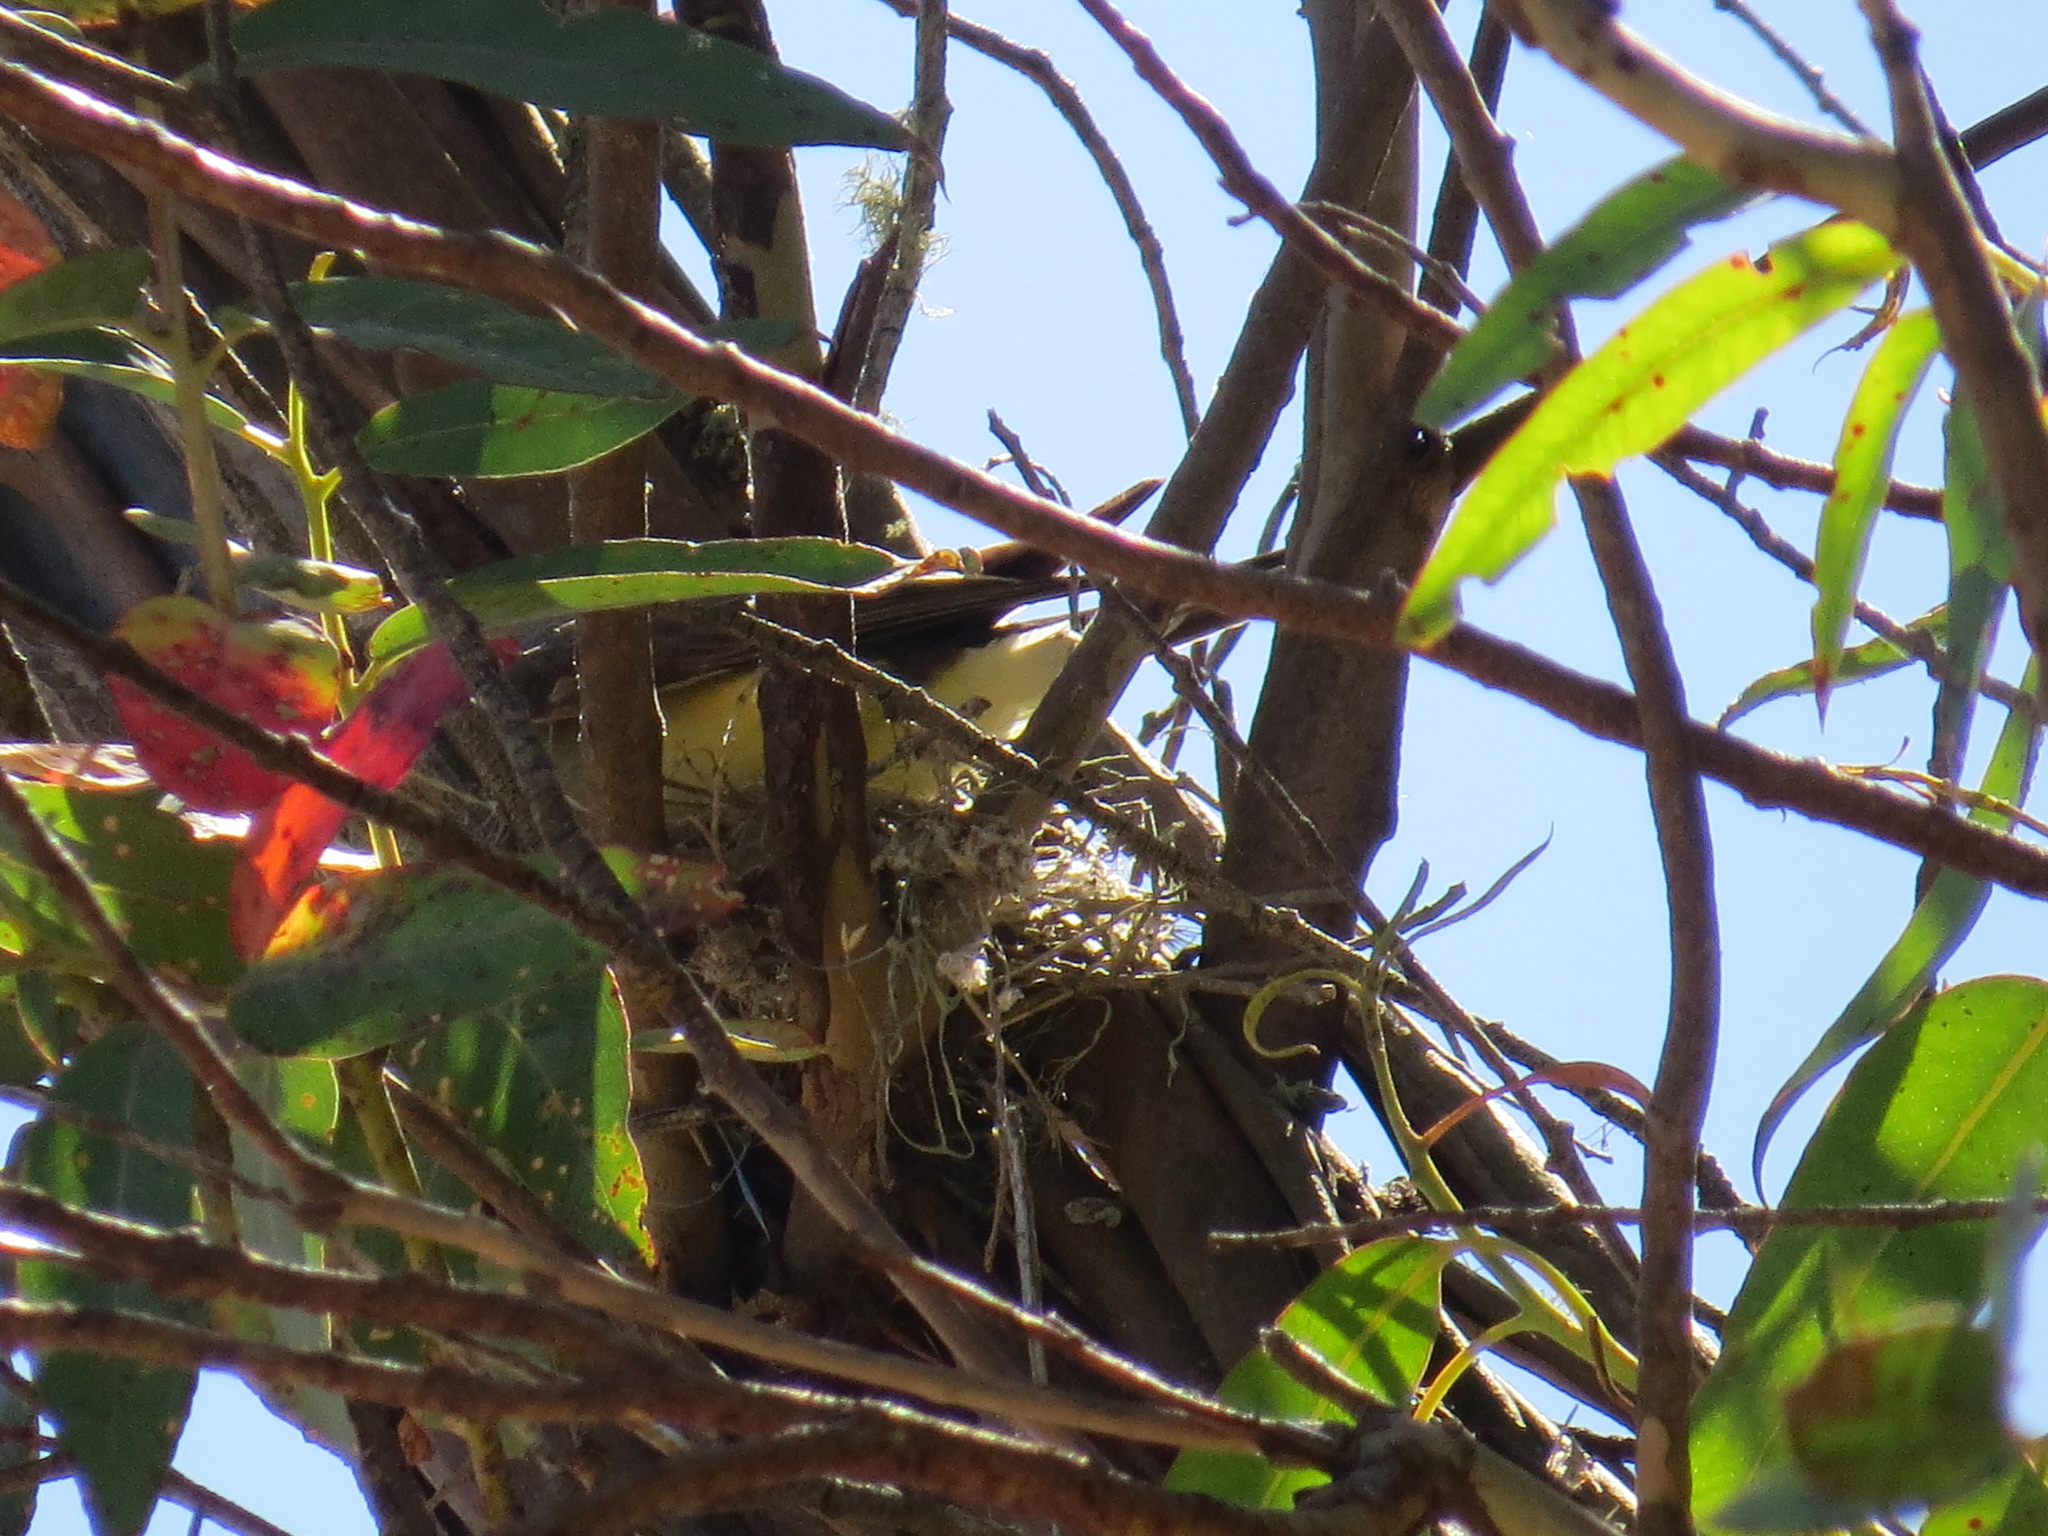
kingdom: Animalia
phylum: Chordata
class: Aves
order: Passeriformes
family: Tyrannidae
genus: Tyrannus
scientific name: Tyrannus verticalis
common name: Western kingbird
